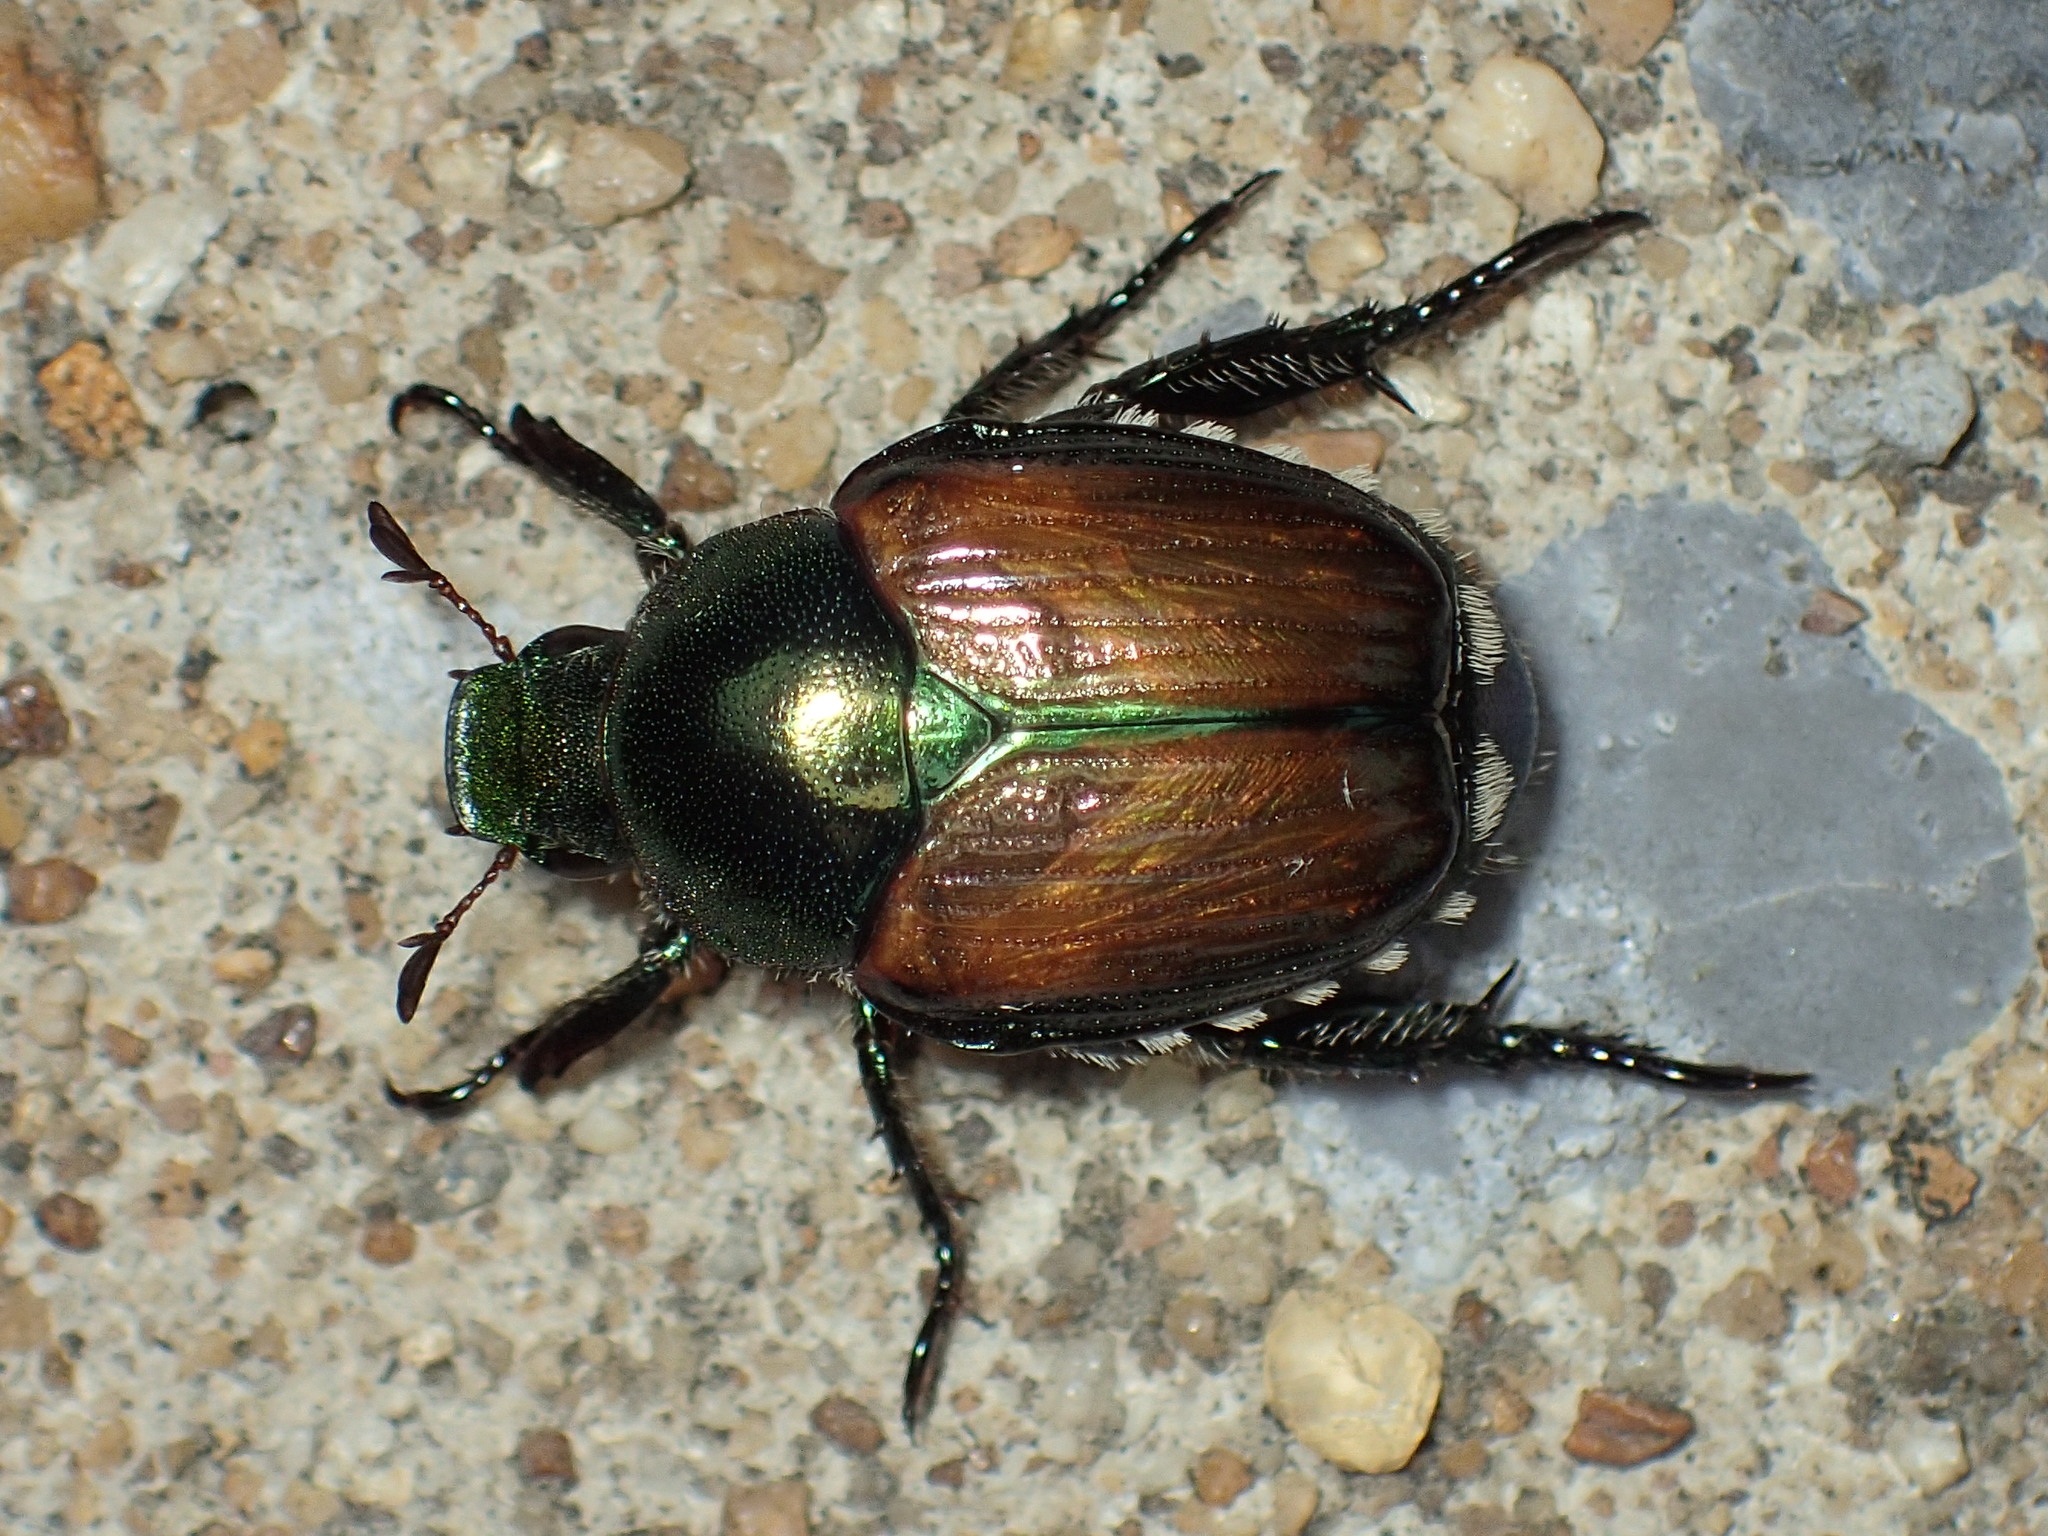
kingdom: Animalia
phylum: Arthropoda
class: Insecta
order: Coleoptera
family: Scarabaeidae
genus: Popillia
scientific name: Popillia japonica
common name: Japanese beetle
